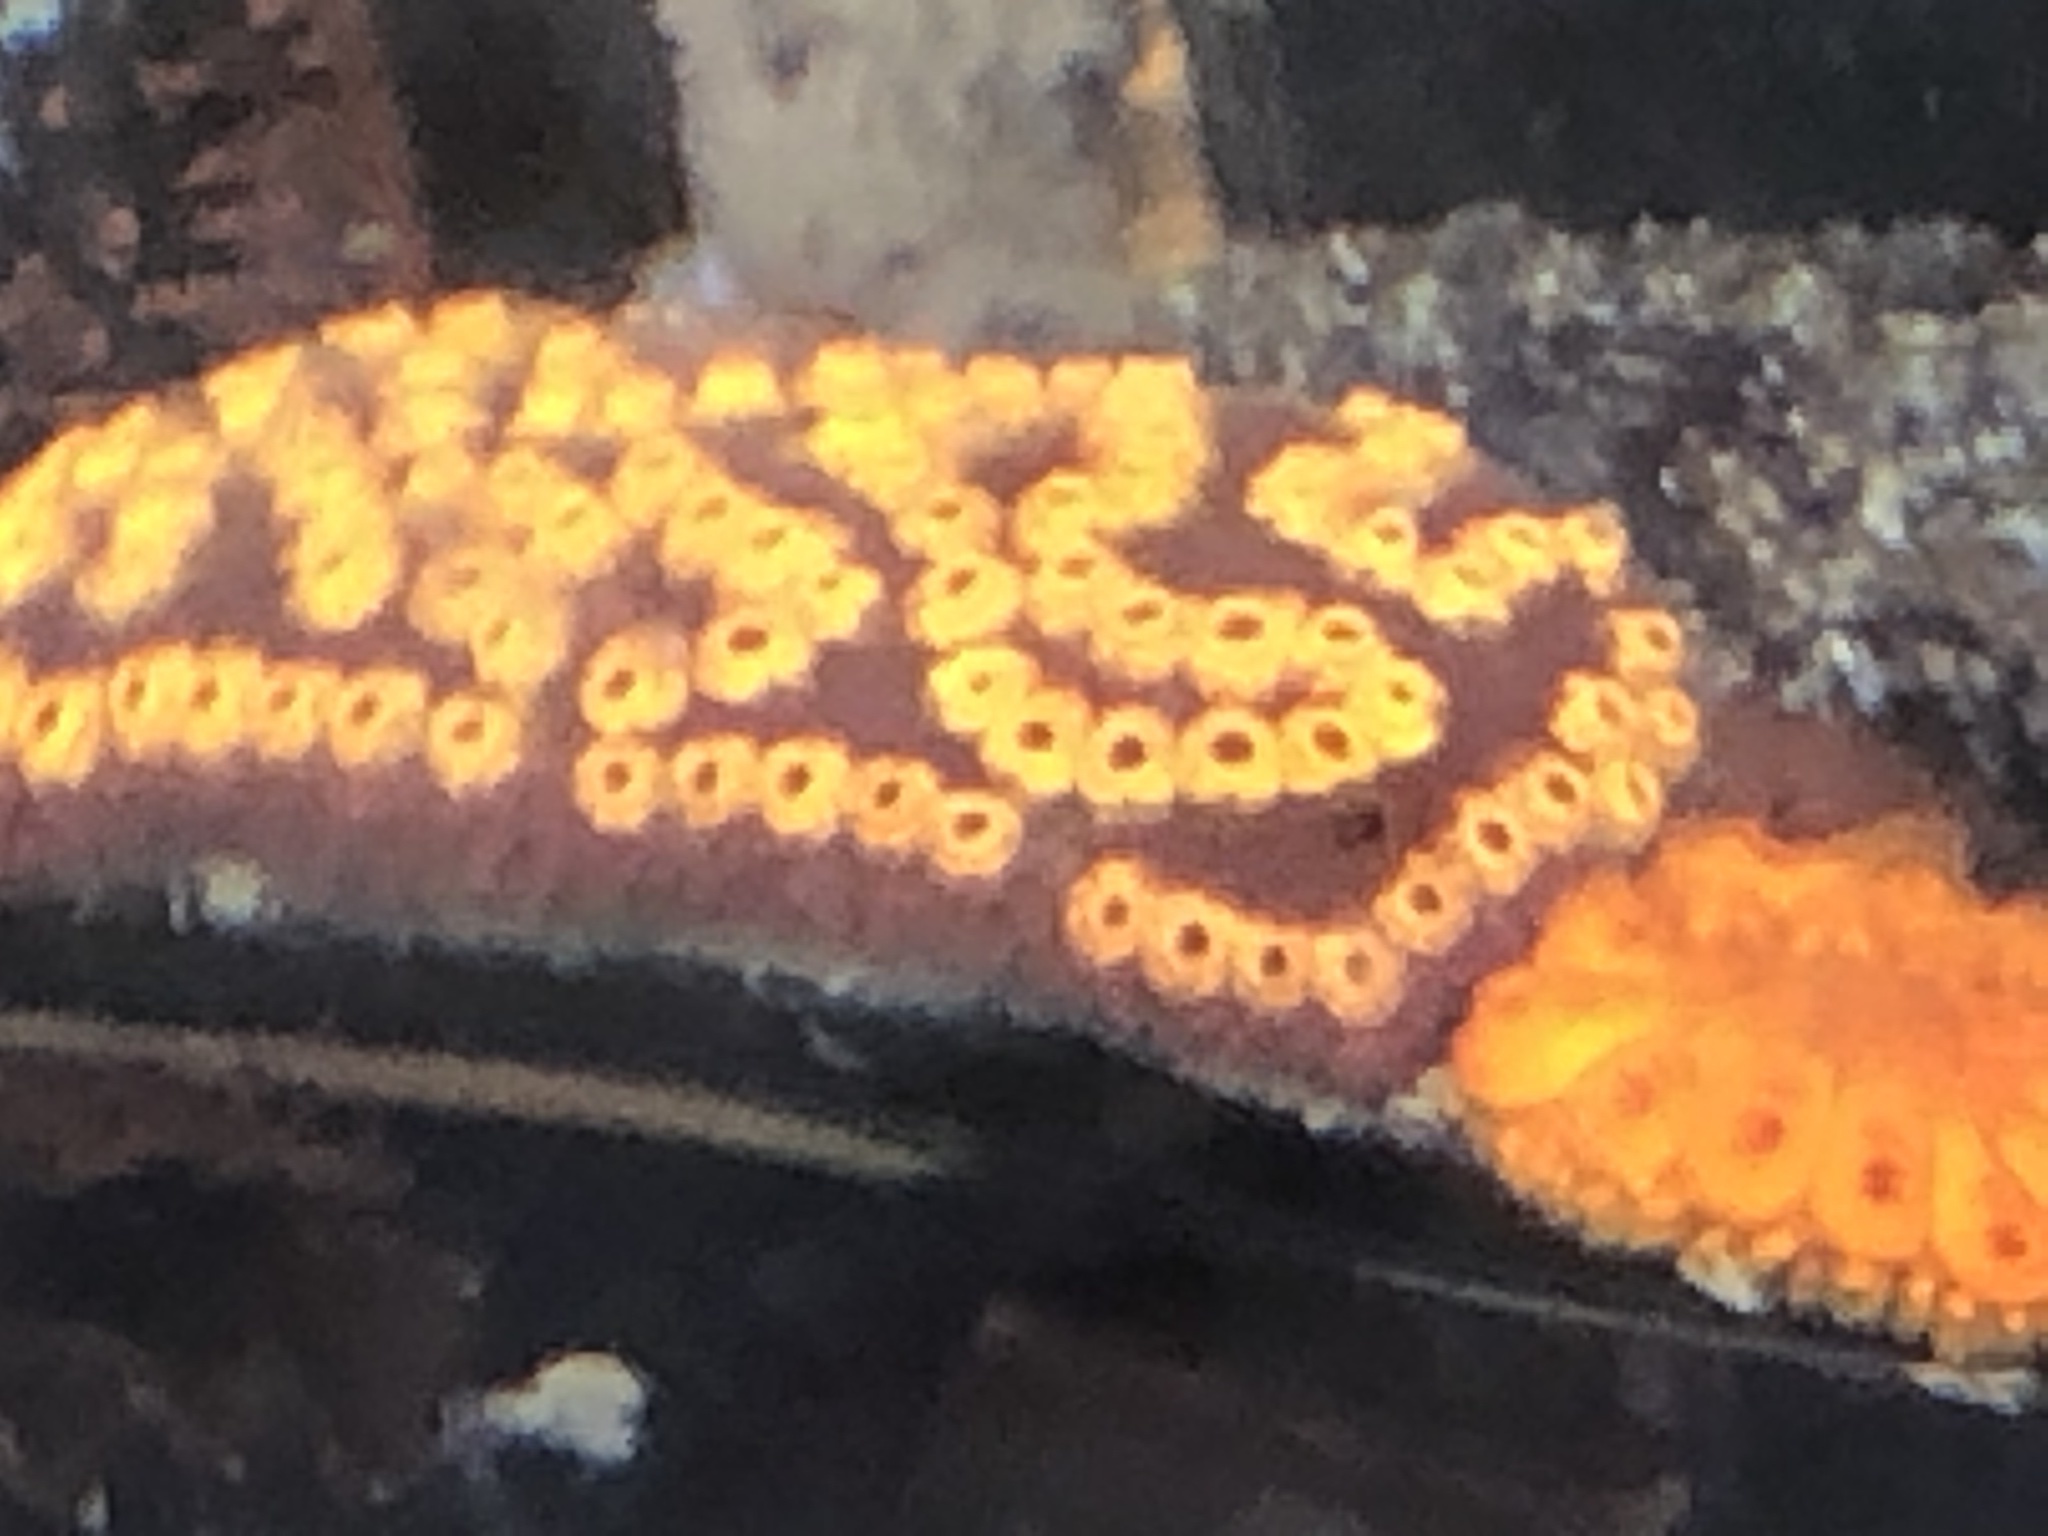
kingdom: Animalia
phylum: Chordata
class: Ascidiacea
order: Stolidobranchia
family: Styelidae
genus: Botrylloides
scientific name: Botrylloides diegensis
